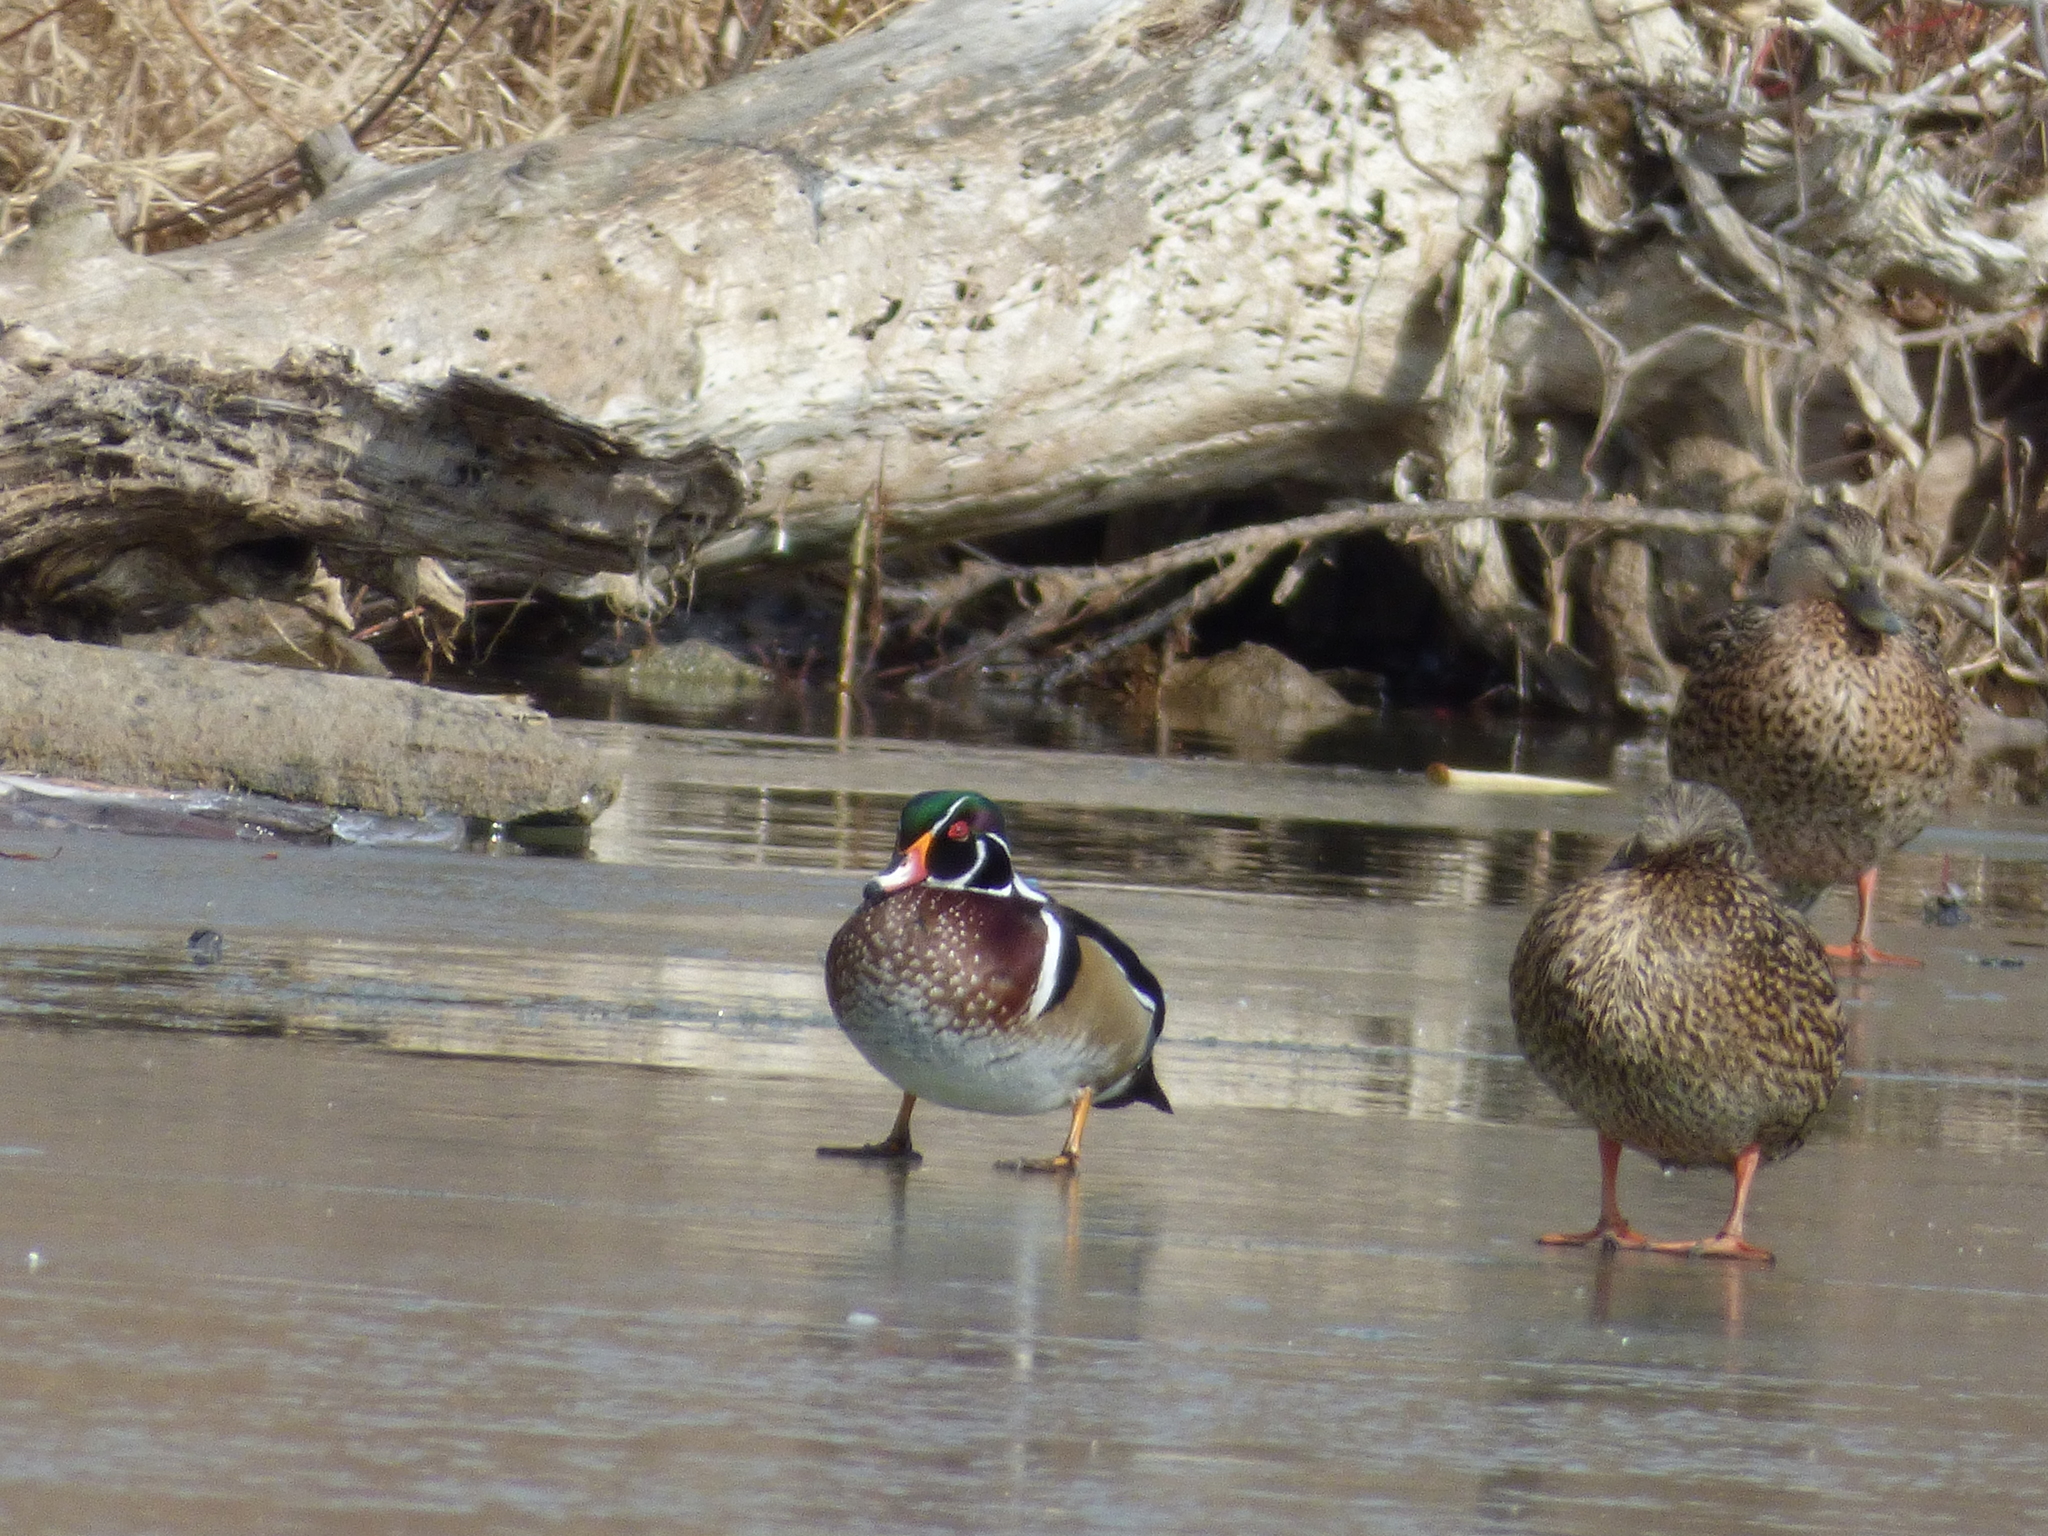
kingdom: Animalia
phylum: Chordata
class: Aves
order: Anseriformes
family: Anatidae
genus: Aix
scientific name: Aix sponsa
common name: Wood duck
